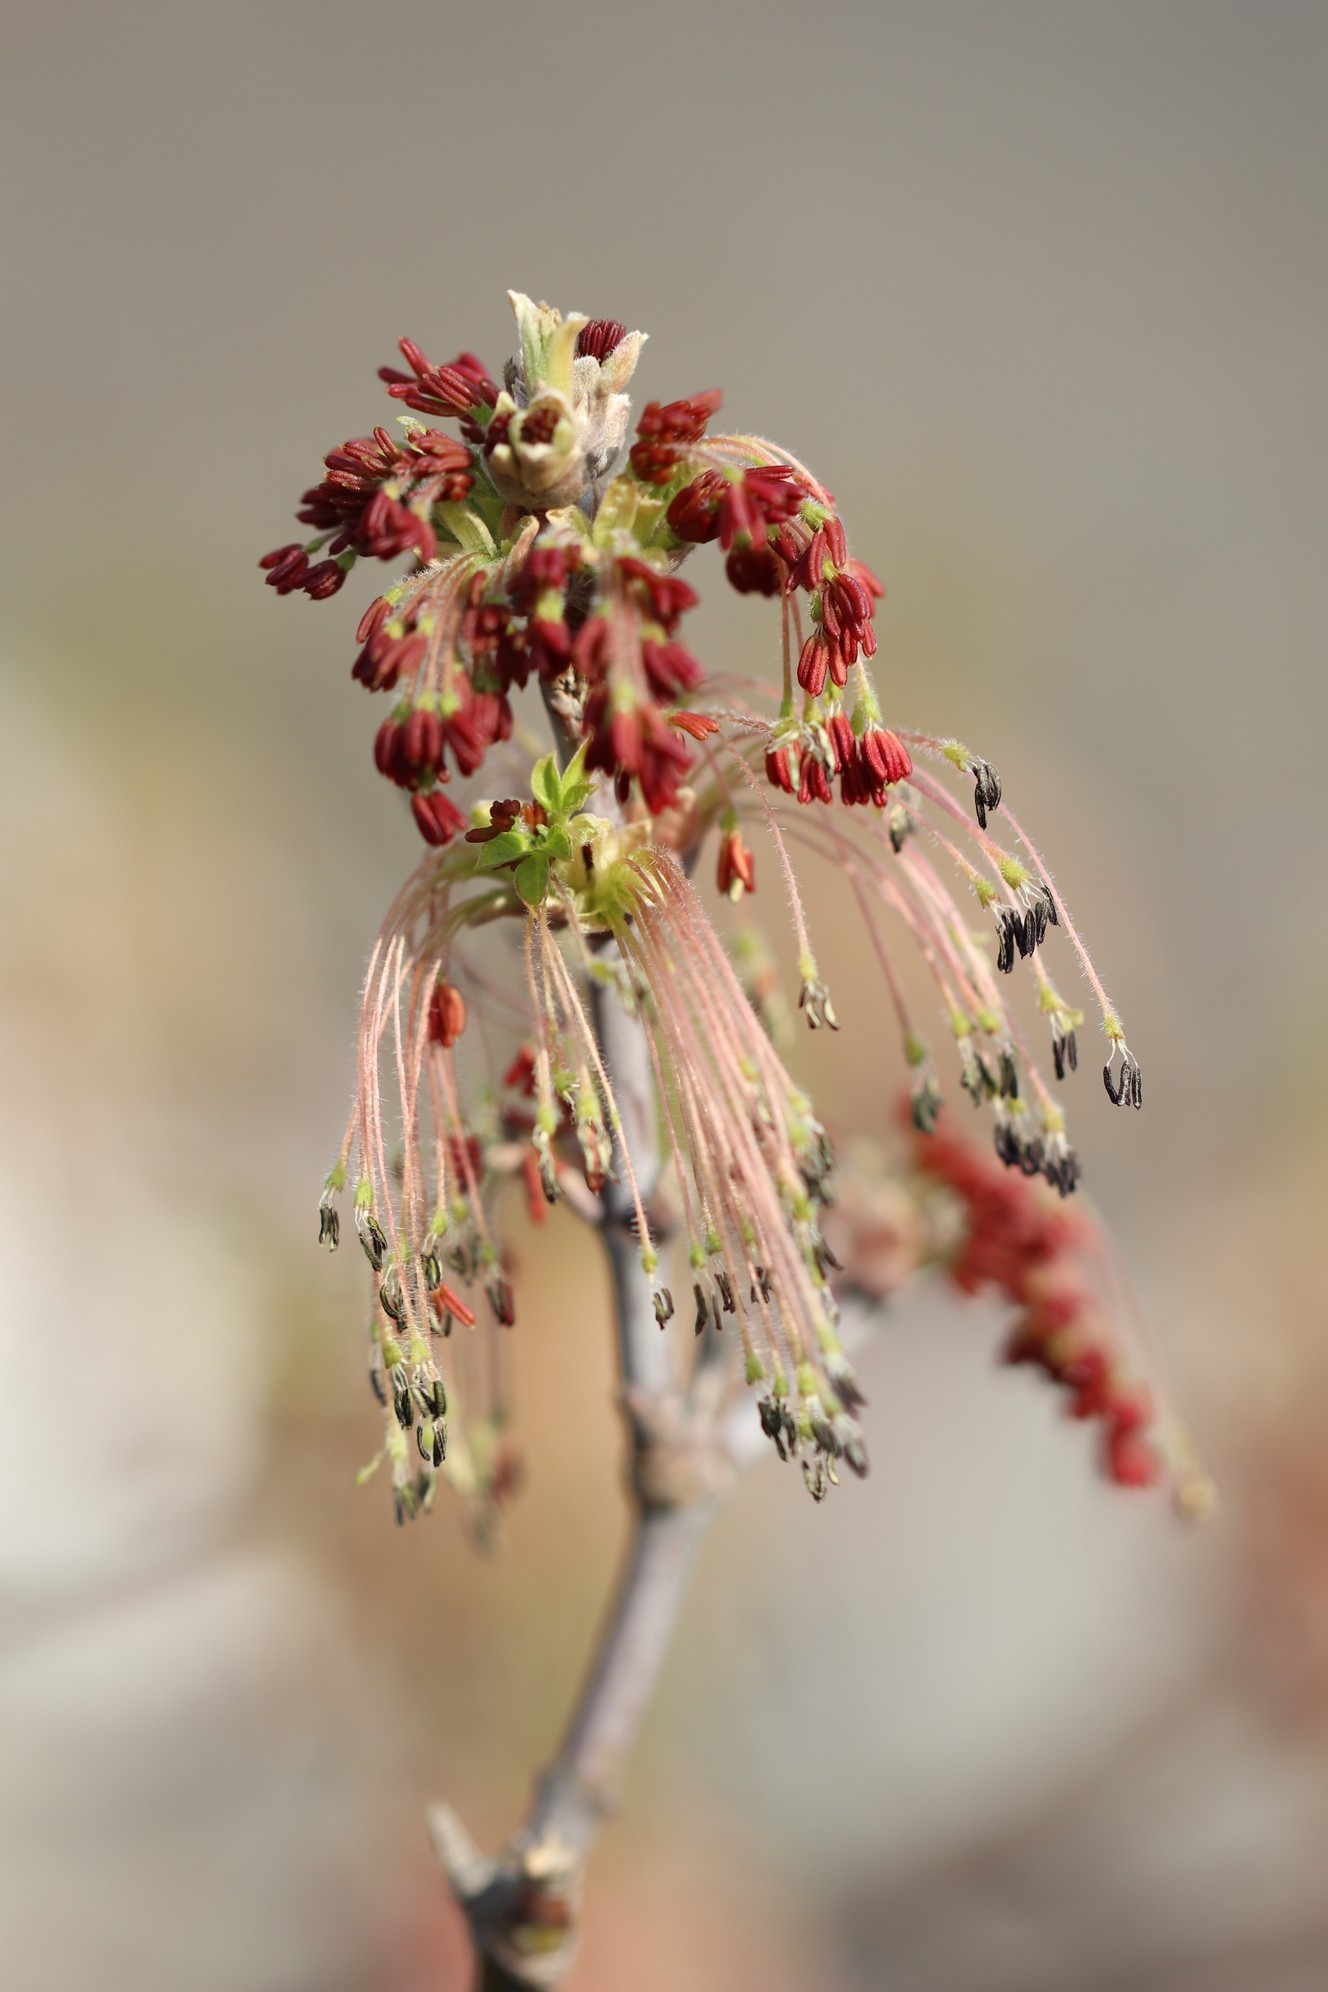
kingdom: Plantae
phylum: Tracheophyta
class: Magnoliopsida
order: Sapindales
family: Sapindaceae
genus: Acer
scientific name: Acer negundo
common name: Ashleaf maple
